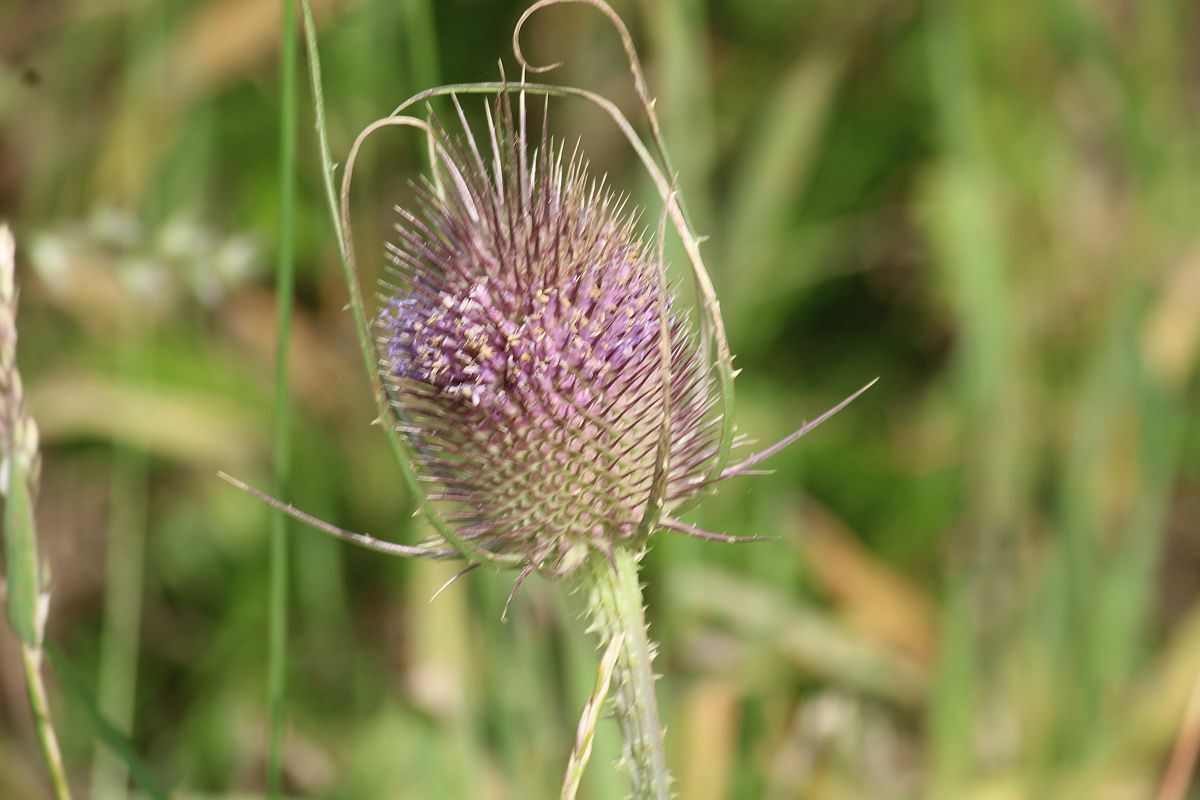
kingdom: Plantae
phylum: Tracheophyta
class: Magnoliopsida
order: Dipsacales
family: Caprifoliaceae
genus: Dipsacus
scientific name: Dipsacus fullonum
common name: Teasel
